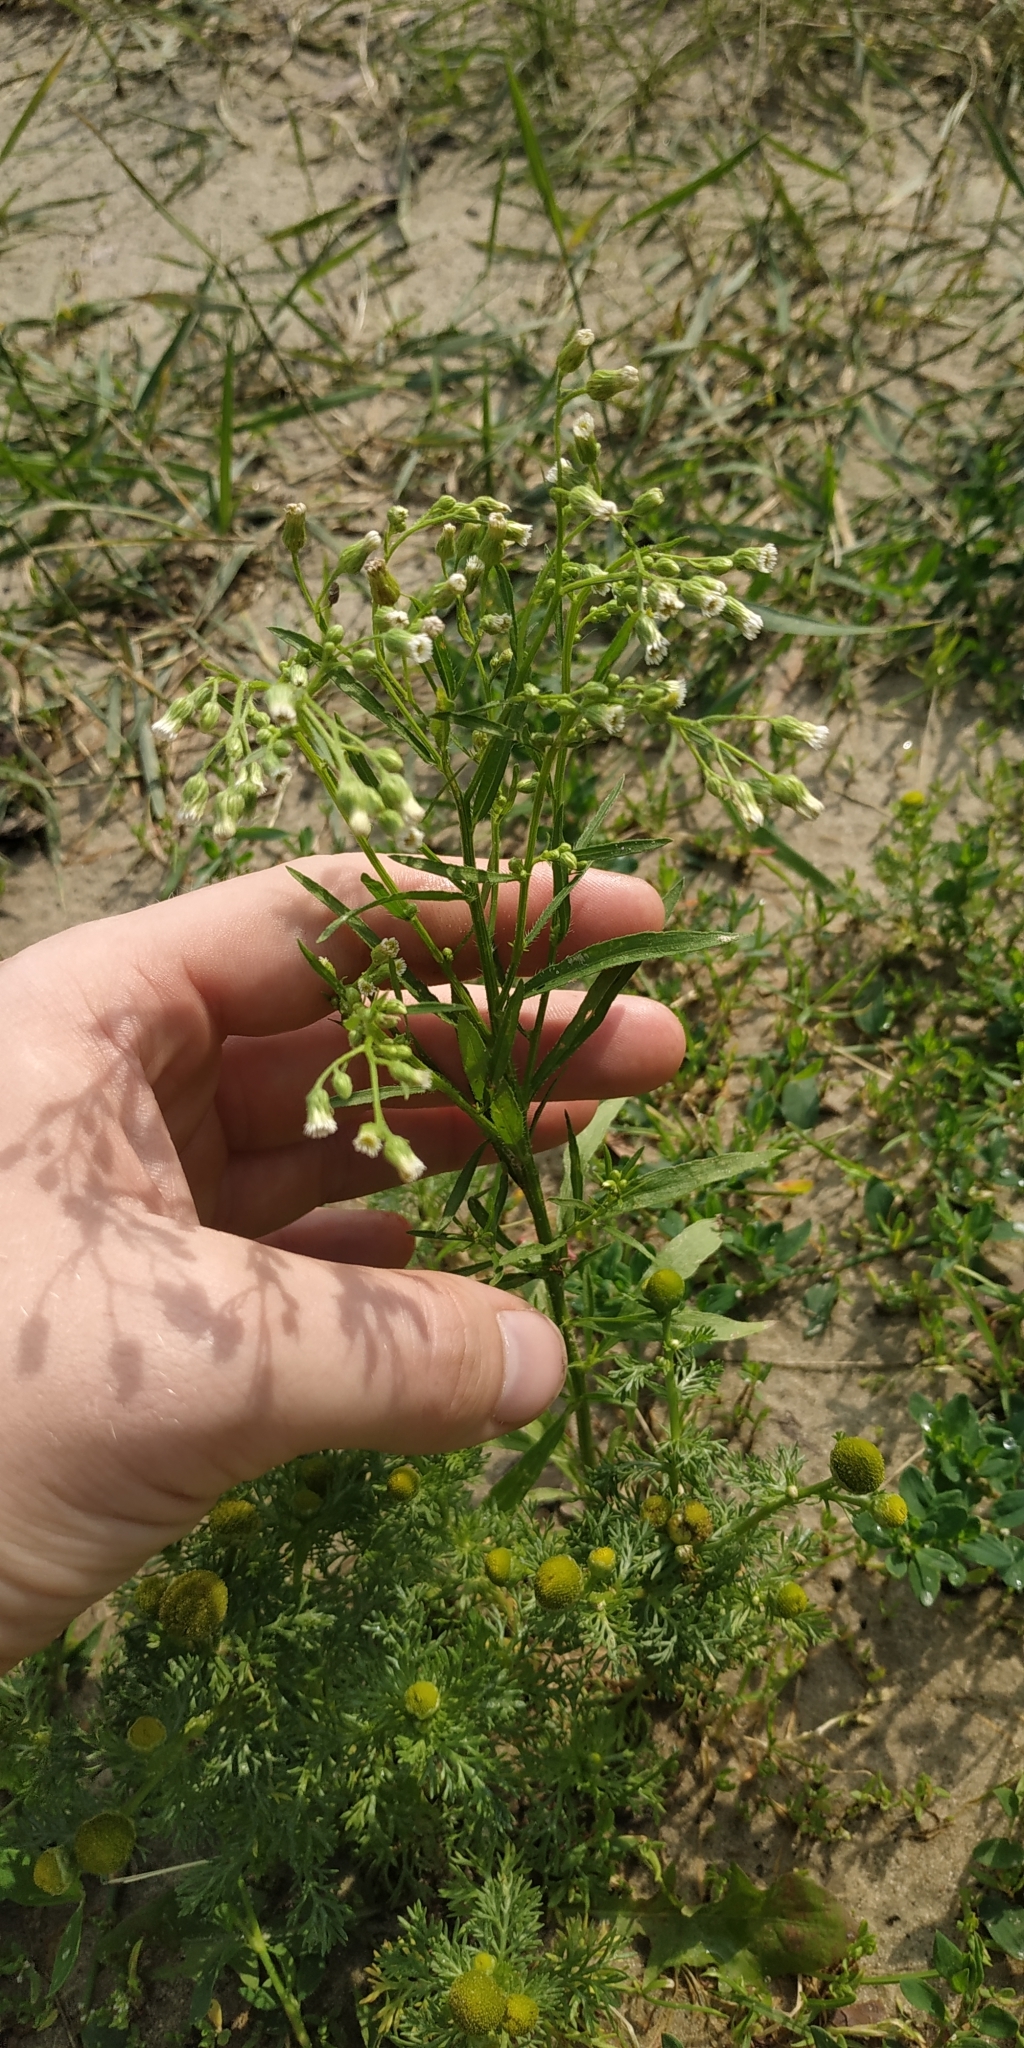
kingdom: Plantae
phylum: Tracheophyta
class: Magnoliopsida
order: Asterales
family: Asteraceae
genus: Erigeron
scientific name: Erigeron canadensis
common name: Canadian fleabane
